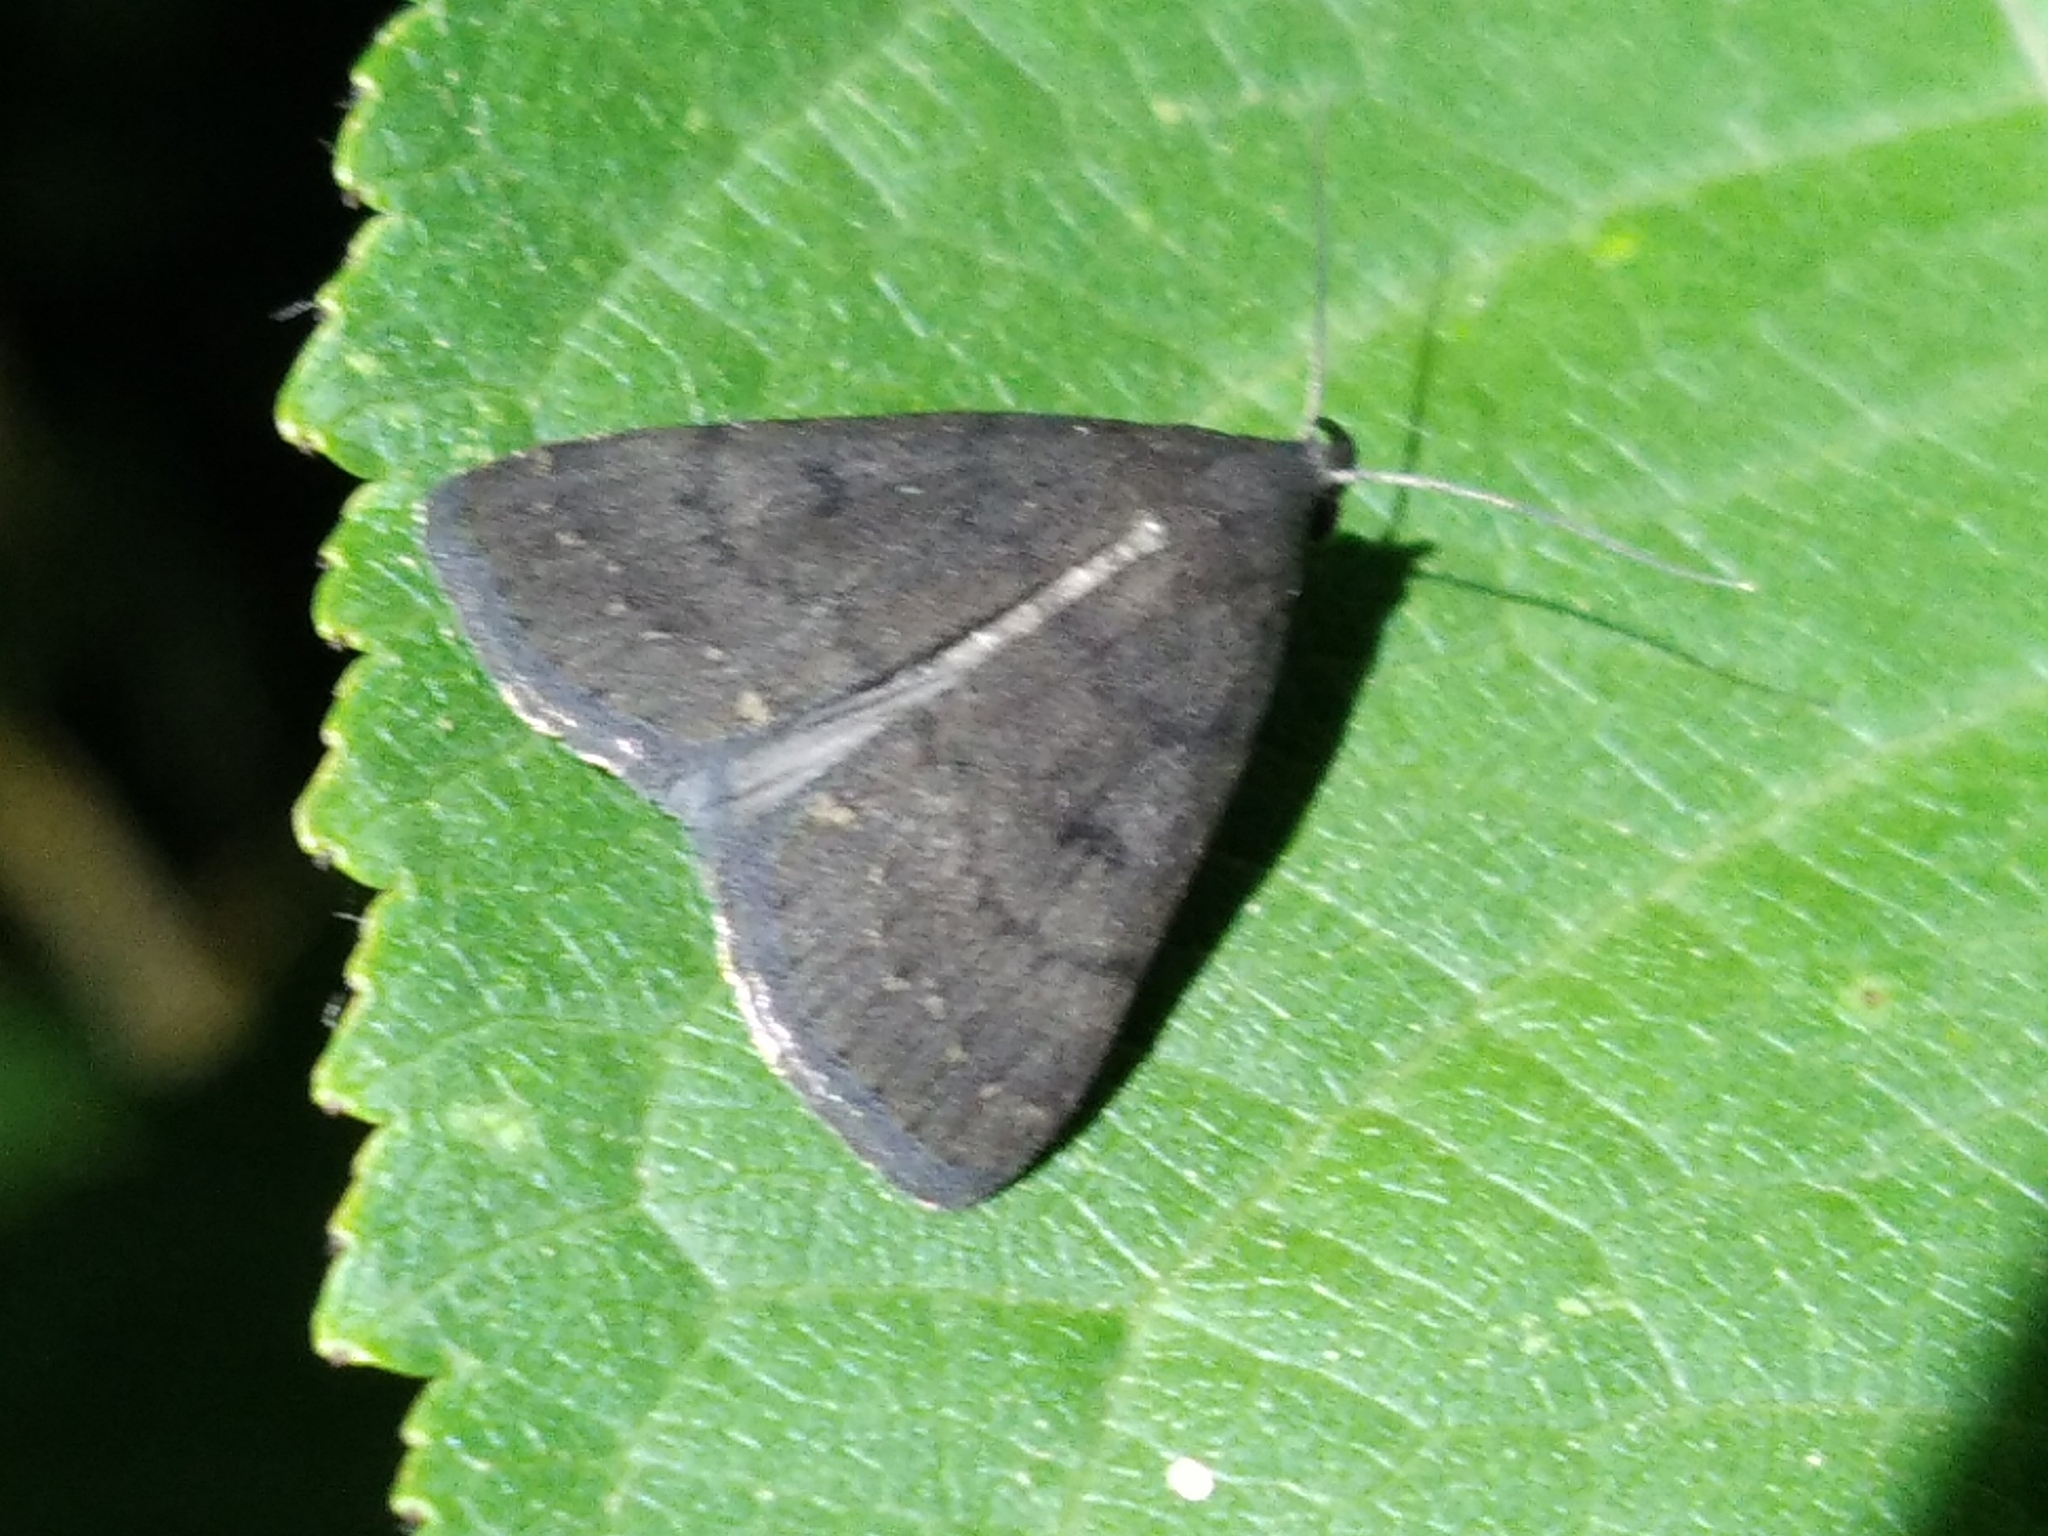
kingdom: Animalia
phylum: Arthropoda
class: Insecta
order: Lepidoptera
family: Erebidae
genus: Nodaria
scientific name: Nodaria nodosalis
